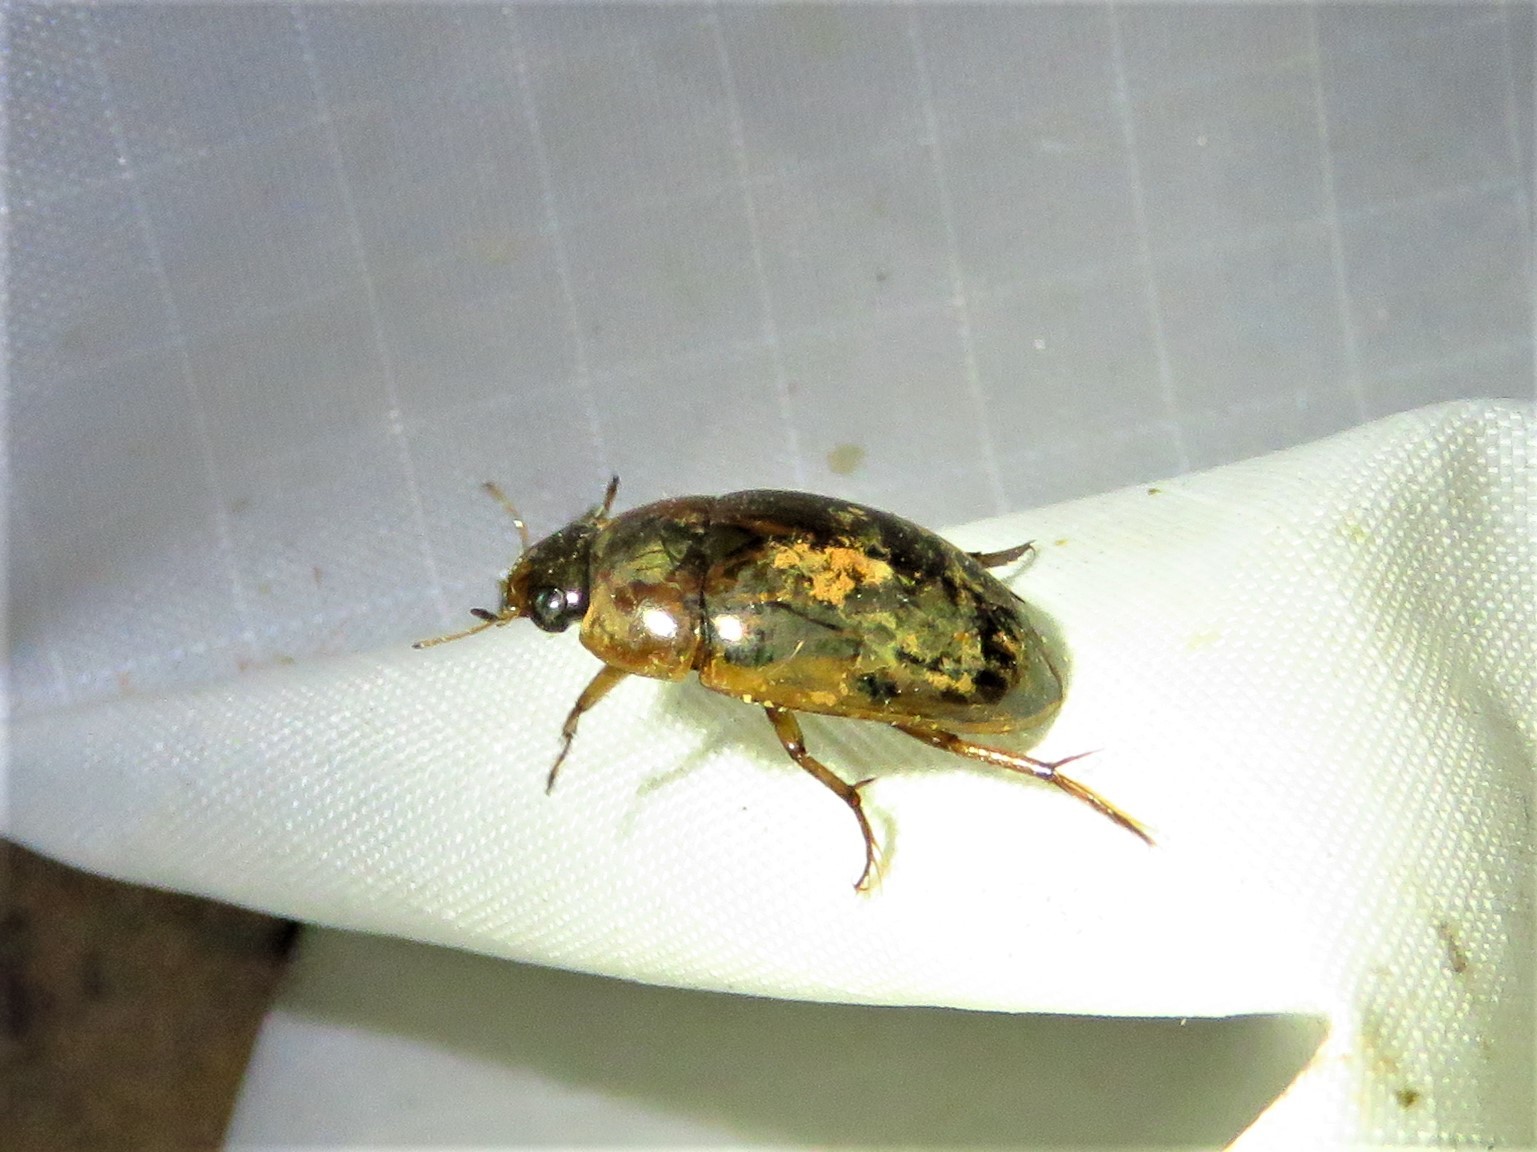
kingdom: Animalia
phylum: Arthropoda
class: Insecta
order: Coleoptera
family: Hydrophilidae
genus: Tropisternus
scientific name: Tropisternus collaris
